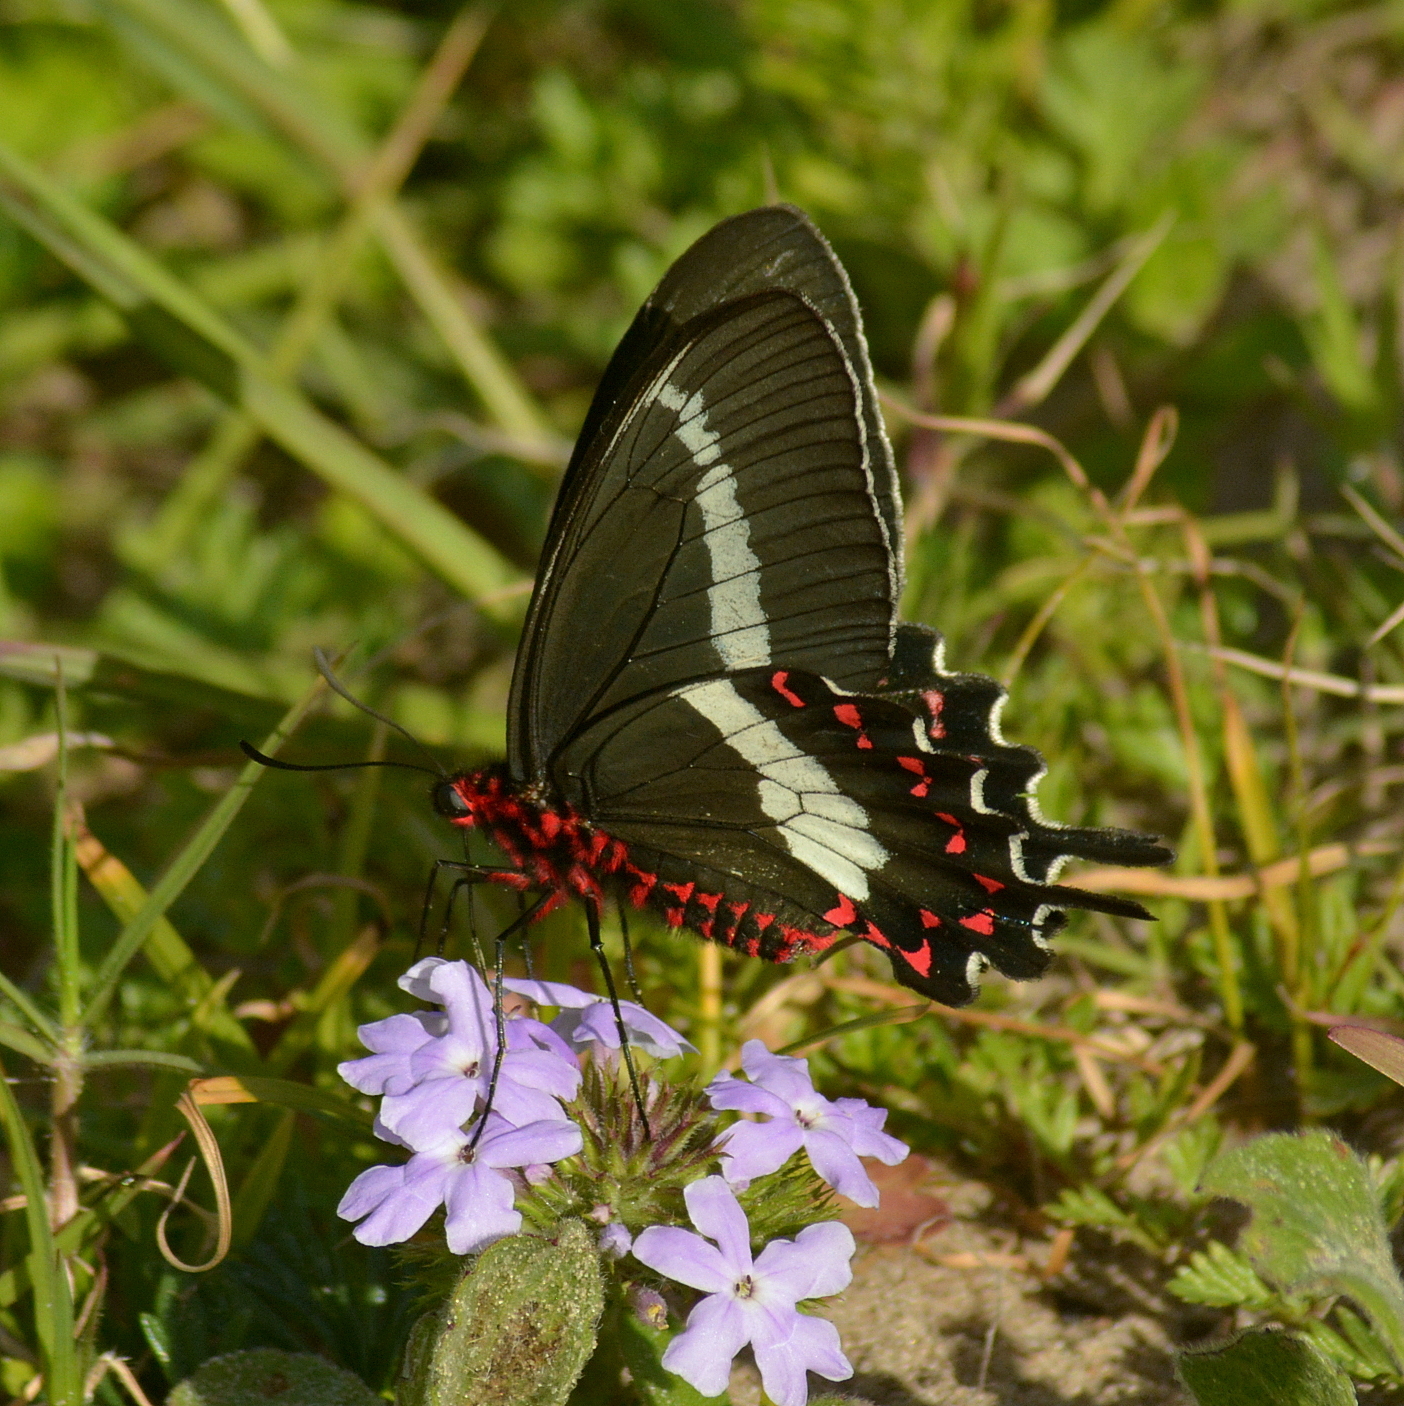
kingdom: Animalia
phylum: Arthropoda
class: Insecta
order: Lepidoptera
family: Papilionidae
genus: Parides
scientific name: Parides bunichus
